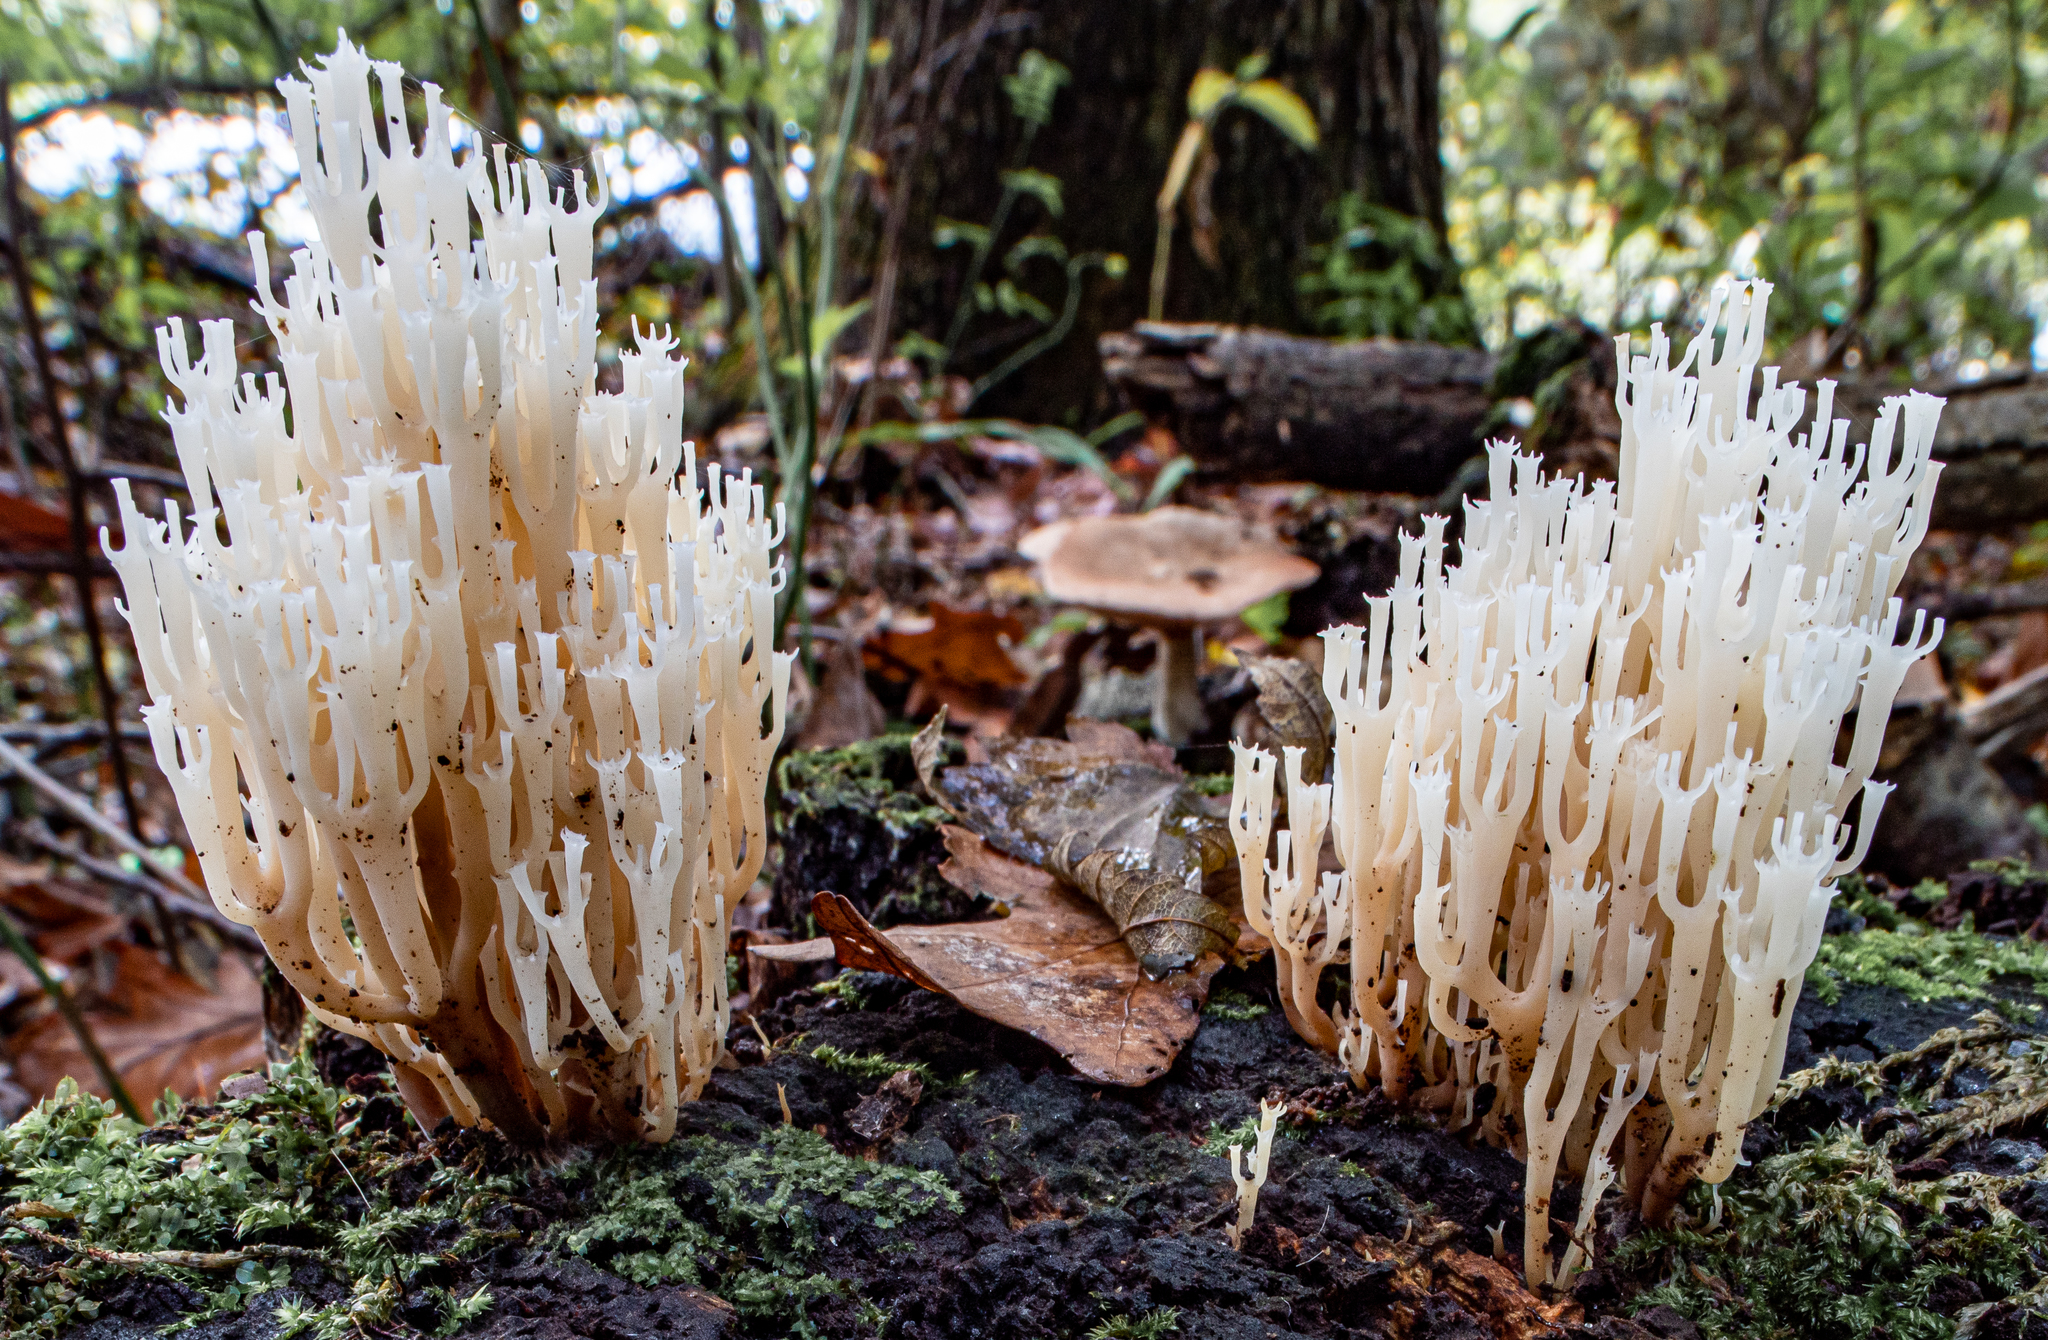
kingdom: Fungi
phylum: Basidiomycota
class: Agaricomycetes
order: Russulales
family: Auriscalpiaceae
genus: Artomyces
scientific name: Artomyces pyxidatus
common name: Crown-tipped coral fungus
